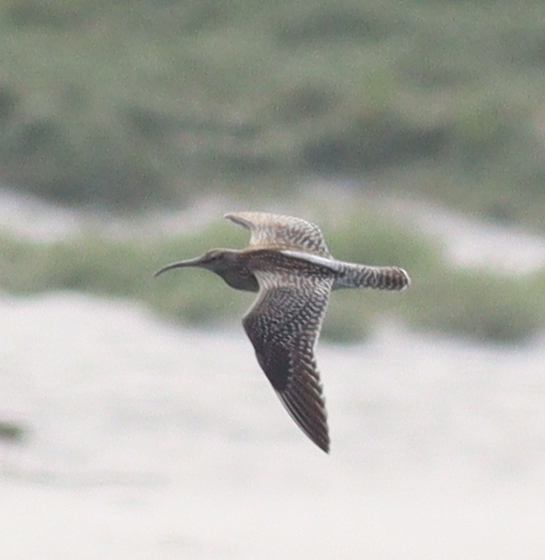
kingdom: Animalia
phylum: Chordata
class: Aves
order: Charadriiformes
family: Scolopacidae
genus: Numenius
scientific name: Numenius phaeopus
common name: Whimbrel
